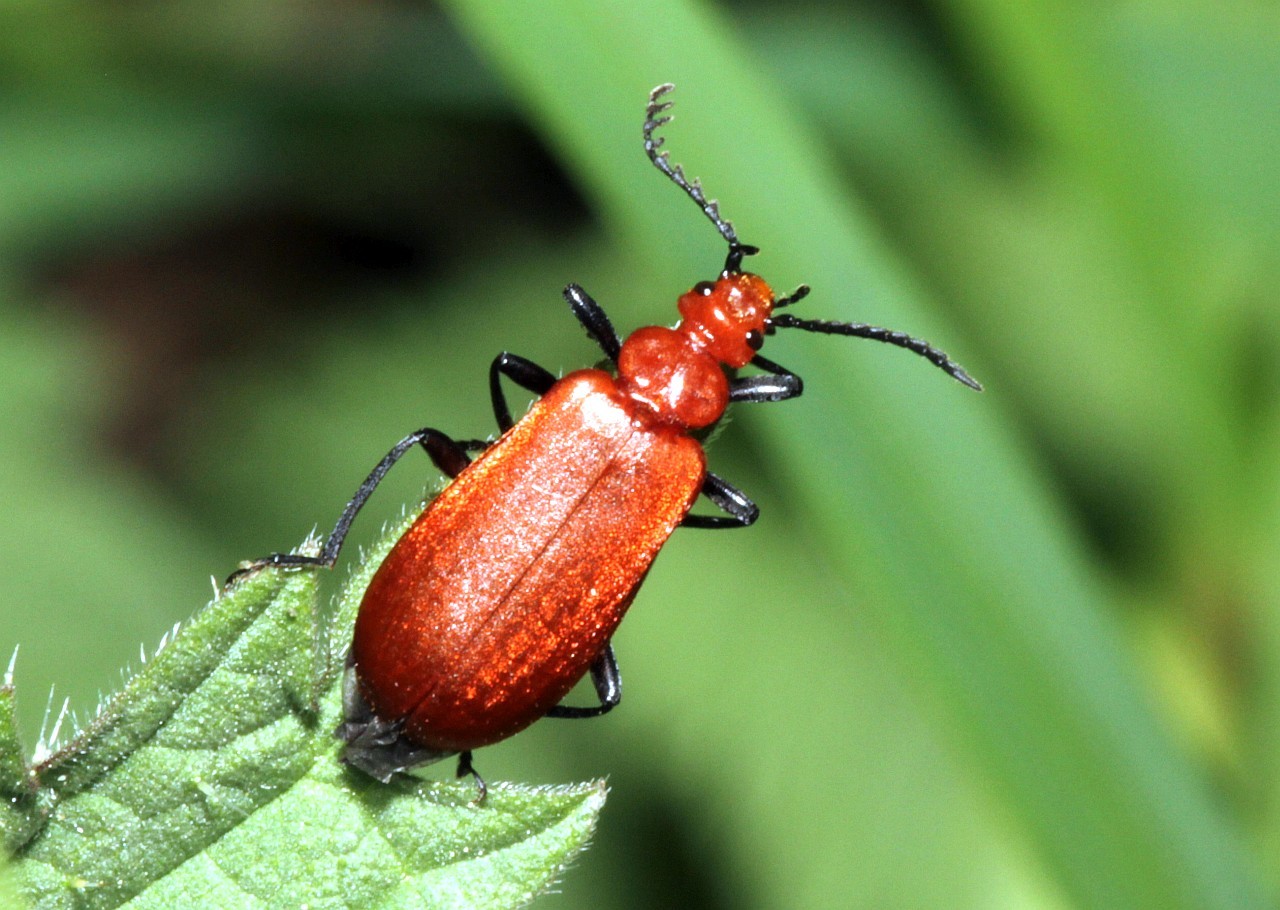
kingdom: Animalia
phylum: Arthropoda
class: Insecta
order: Coleoptera
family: Pyrochroidae
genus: Pyrochroa
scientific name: Pyrochroa serraticornis
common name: Red-headed cardinal beetle
